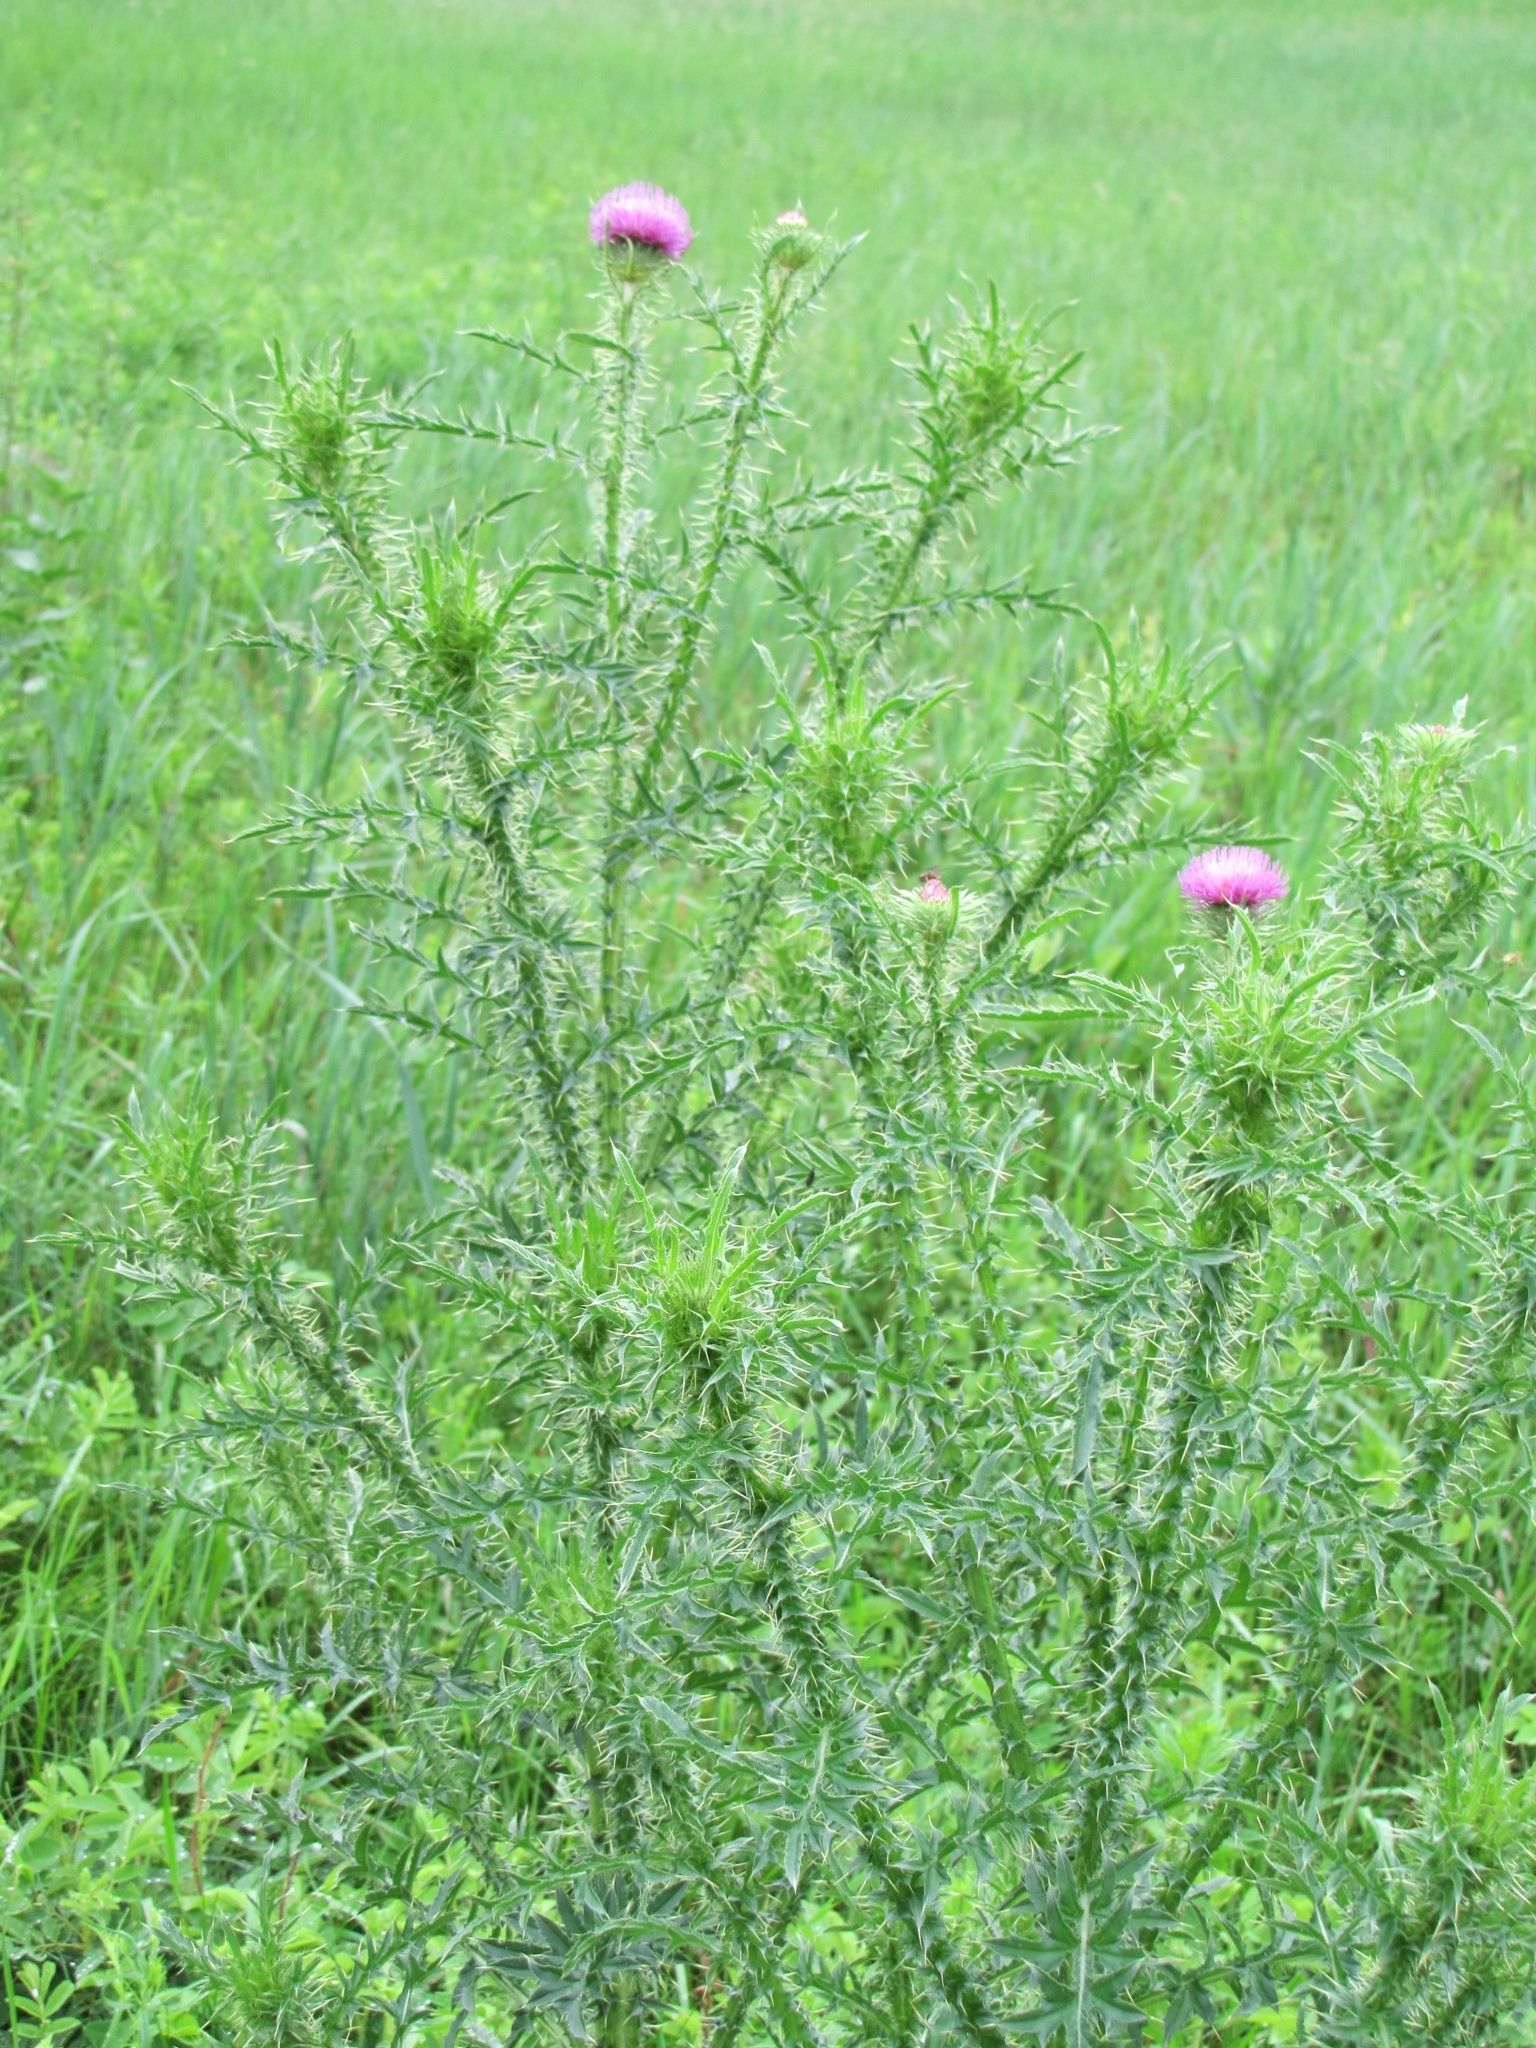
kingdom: Plantae
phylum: Tracheophyta
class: Magnoliopsida
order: Asterales
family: Asteraceae
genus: Carduus
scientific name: Carduus acanthoides
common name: Plumeless thistle
